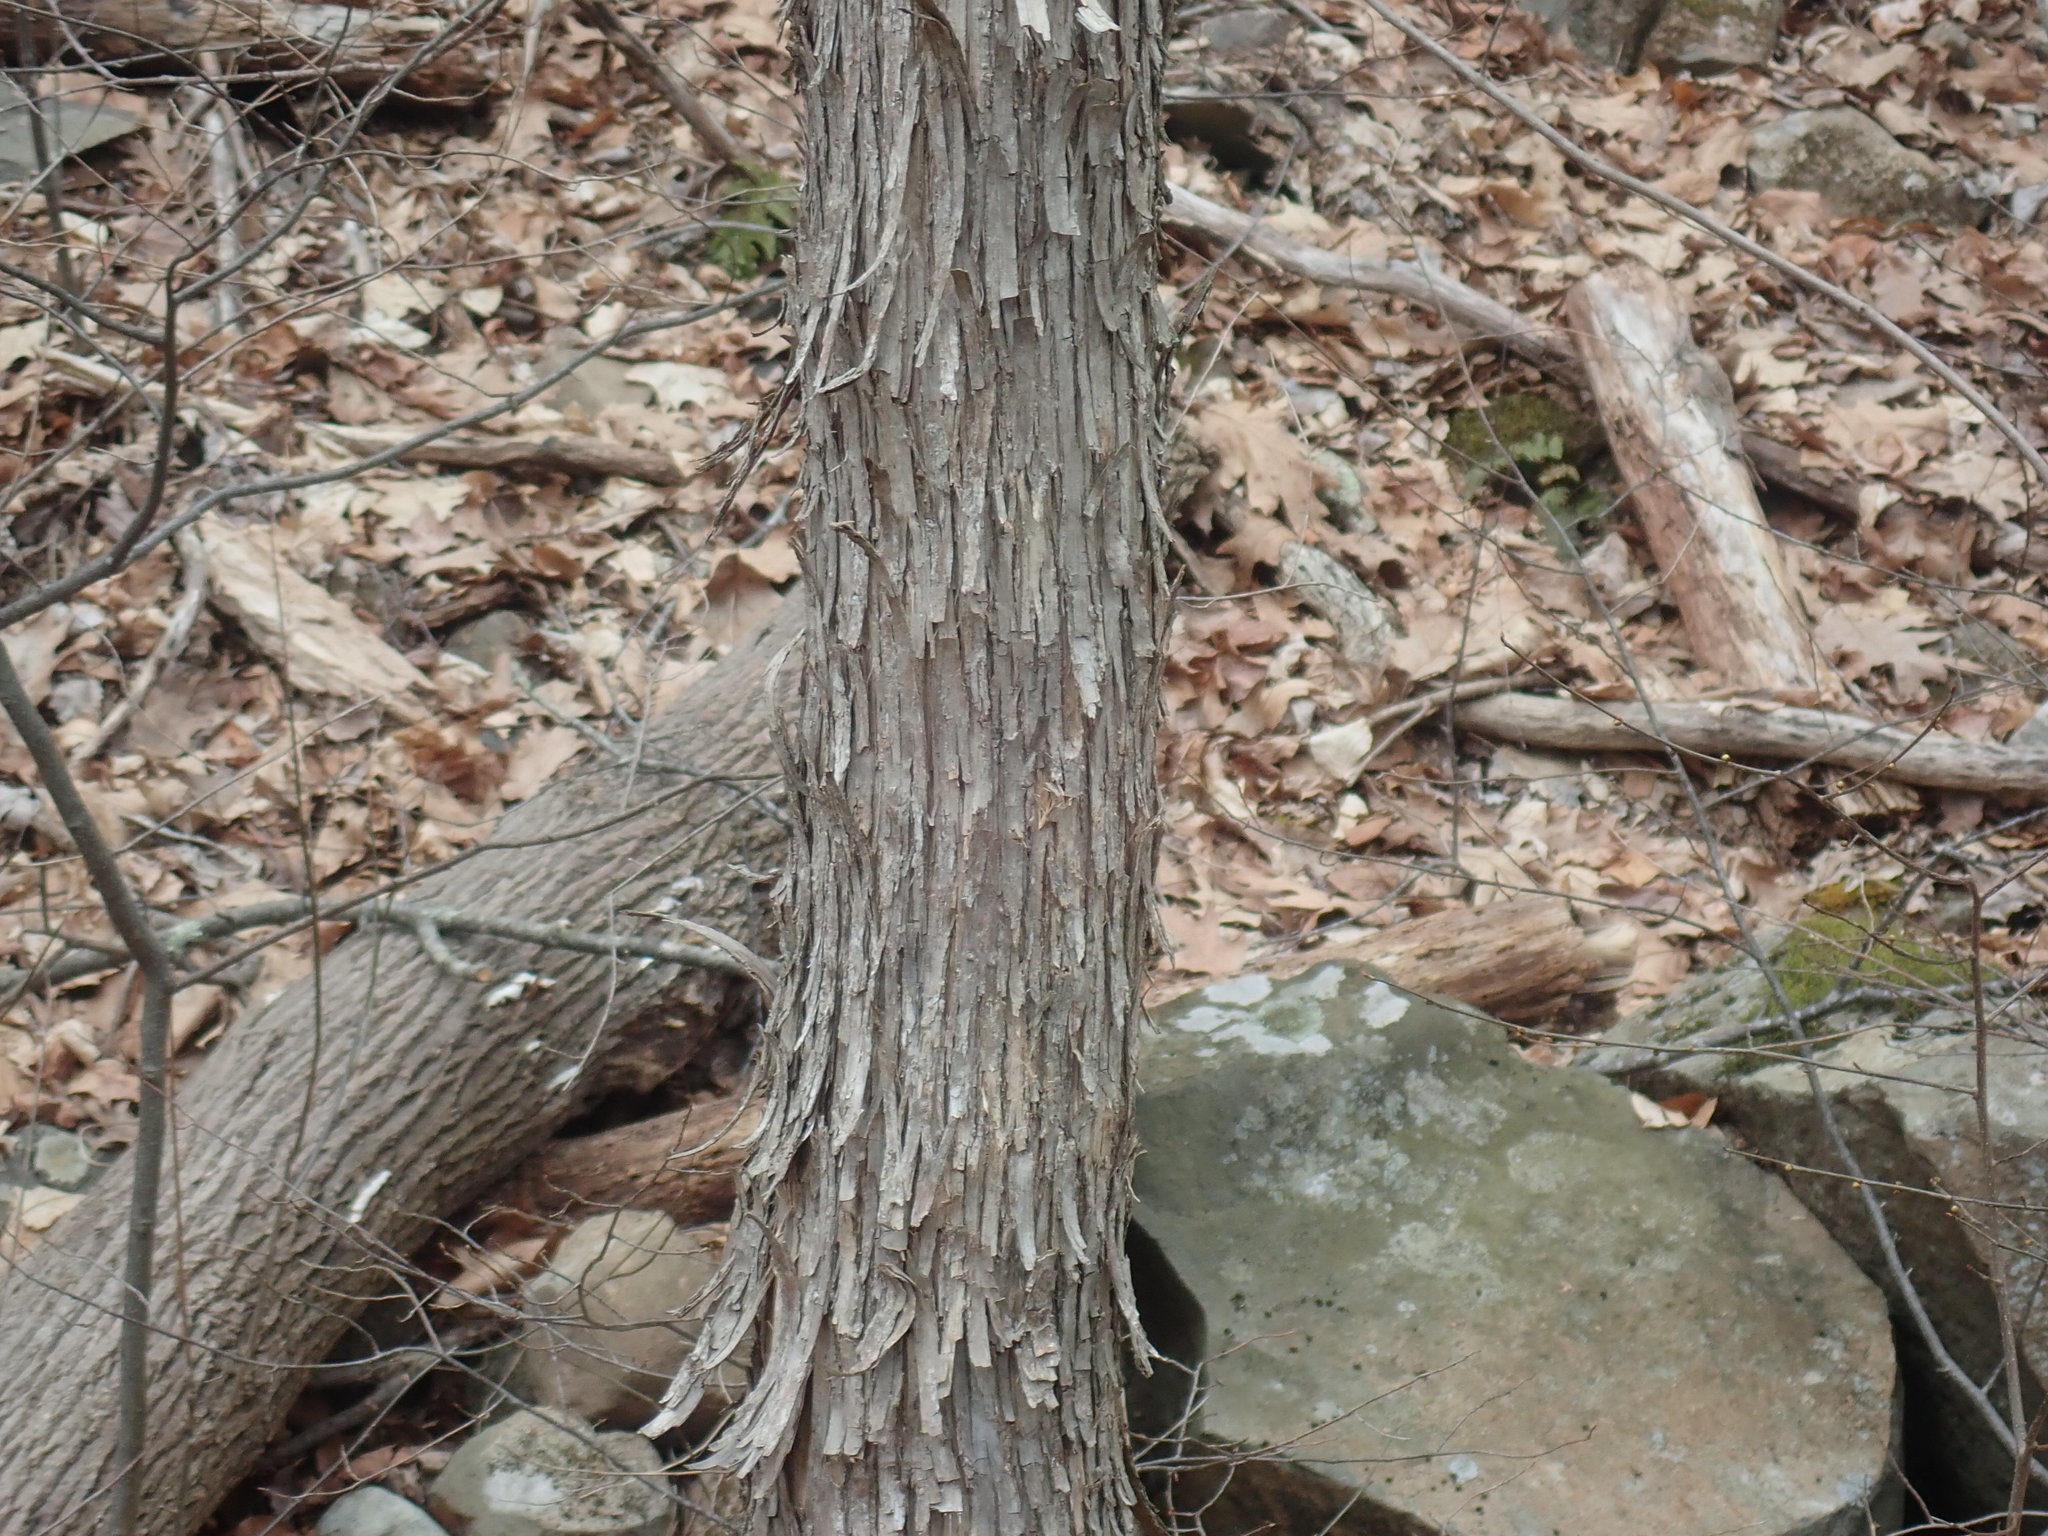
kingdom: Plantae
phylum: Tracheophyta
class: Magnoliopsida
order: Fagales
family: Betulaceae
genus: Ostrya
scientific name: Ostrya virginiana
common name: Ironwood
